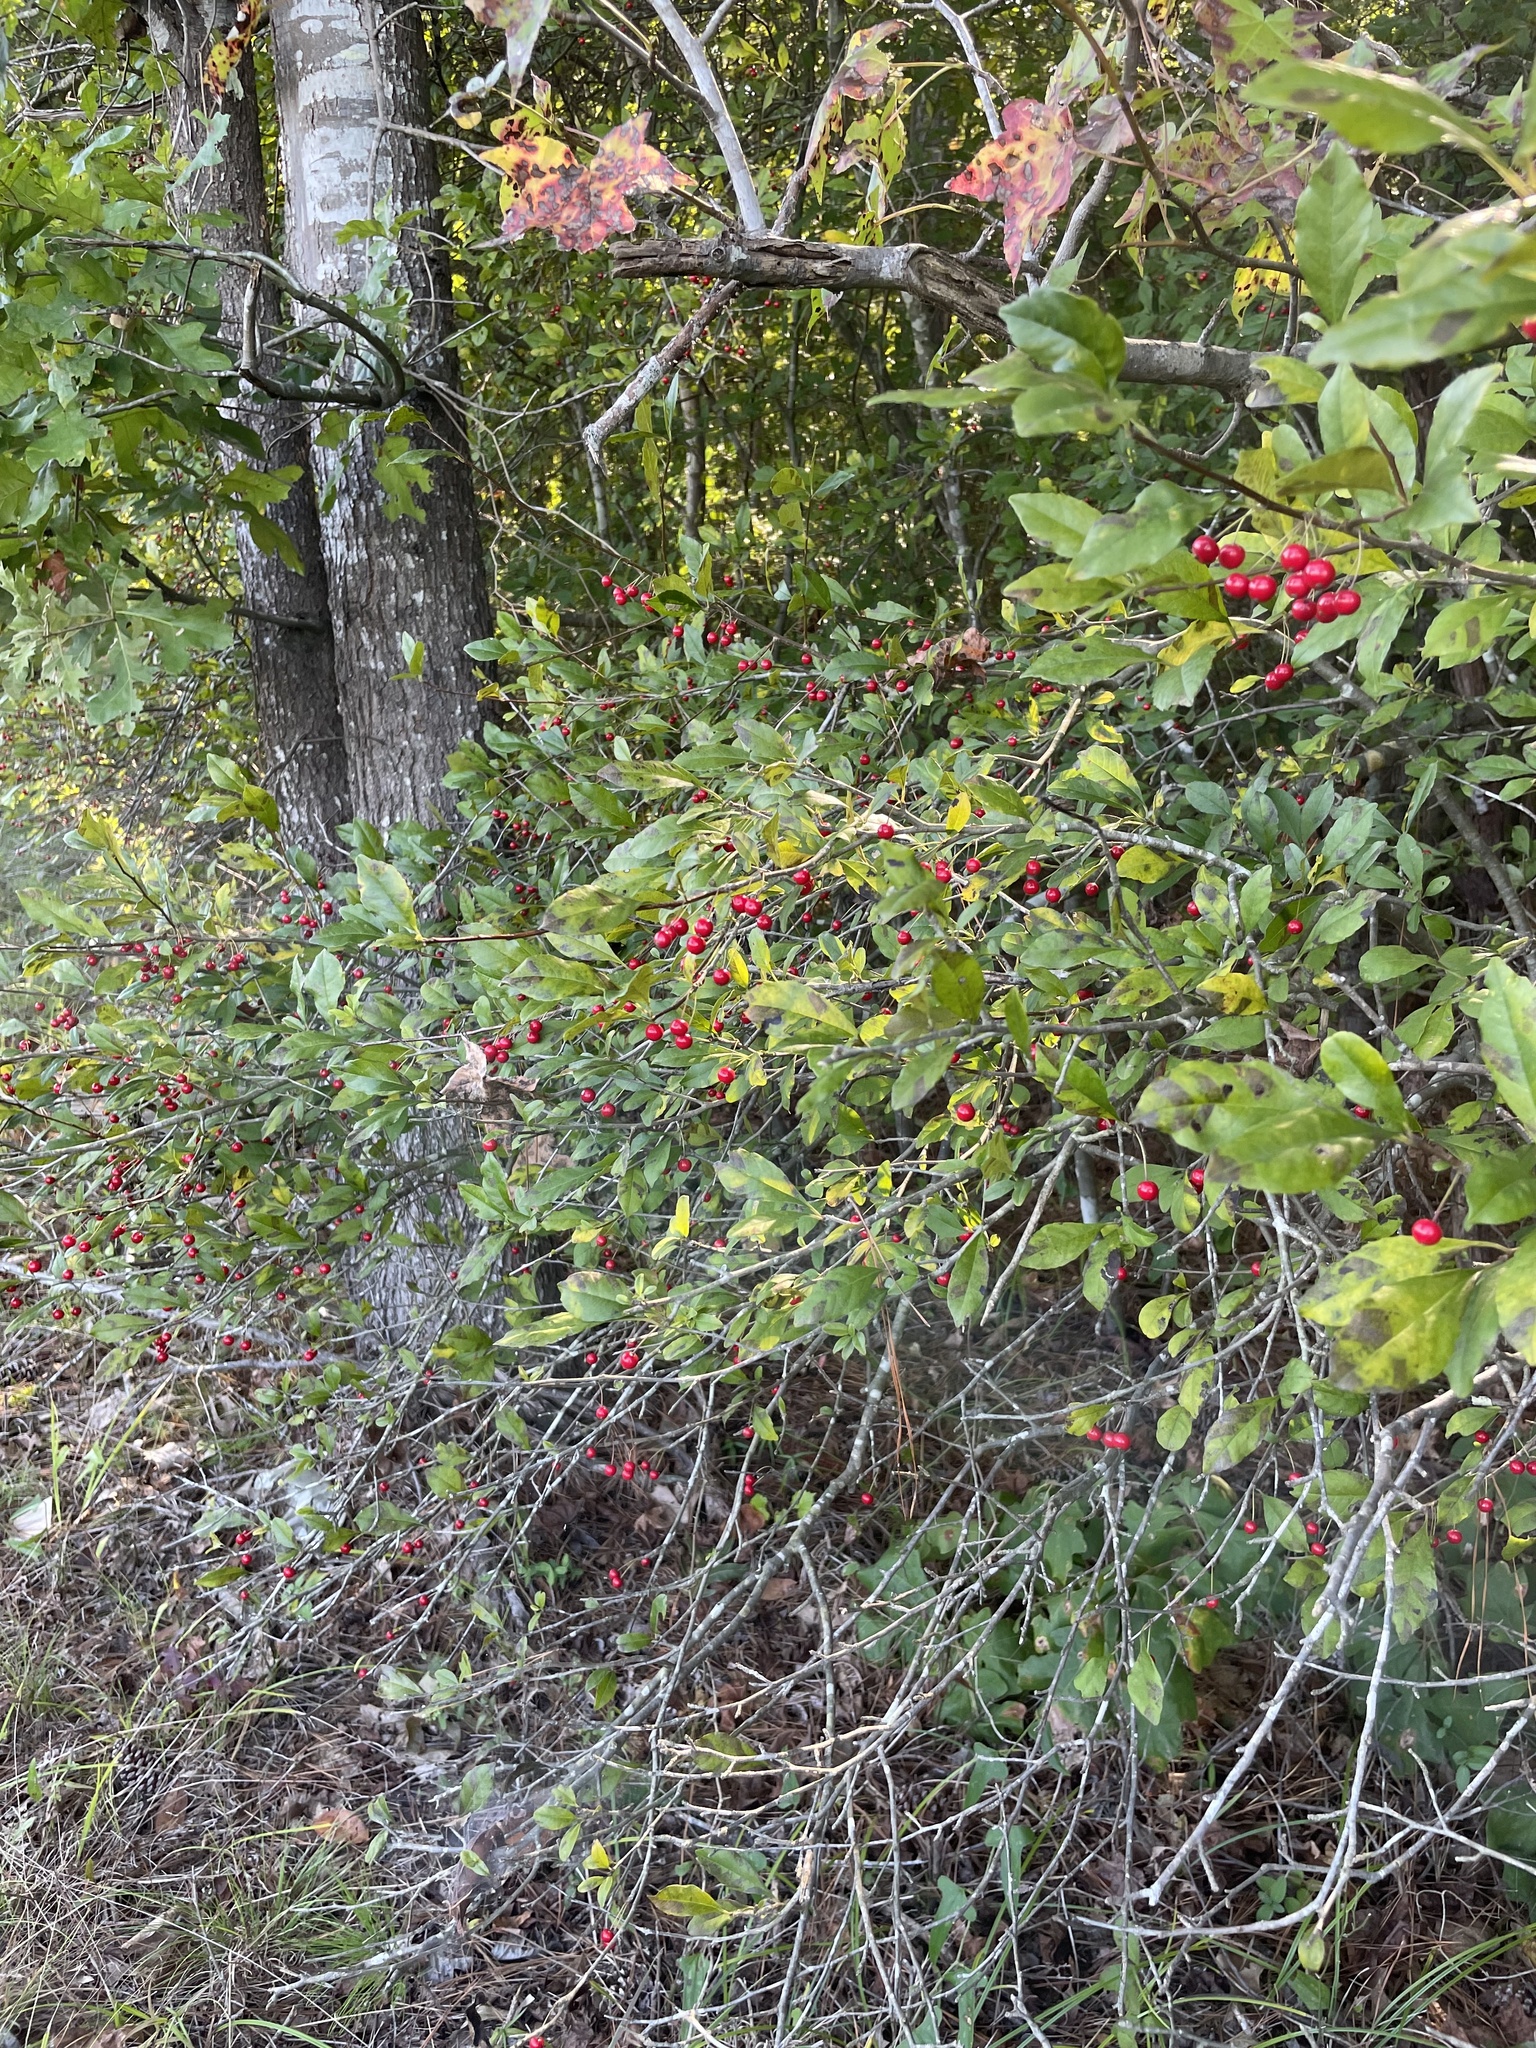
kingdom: Plantae
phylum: Tracheophyta
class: Magnoliopsida
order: Aquifoliales
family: Aquifoliaceae
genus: Ilex
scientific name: Ilex longipes
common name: Georgia holly
